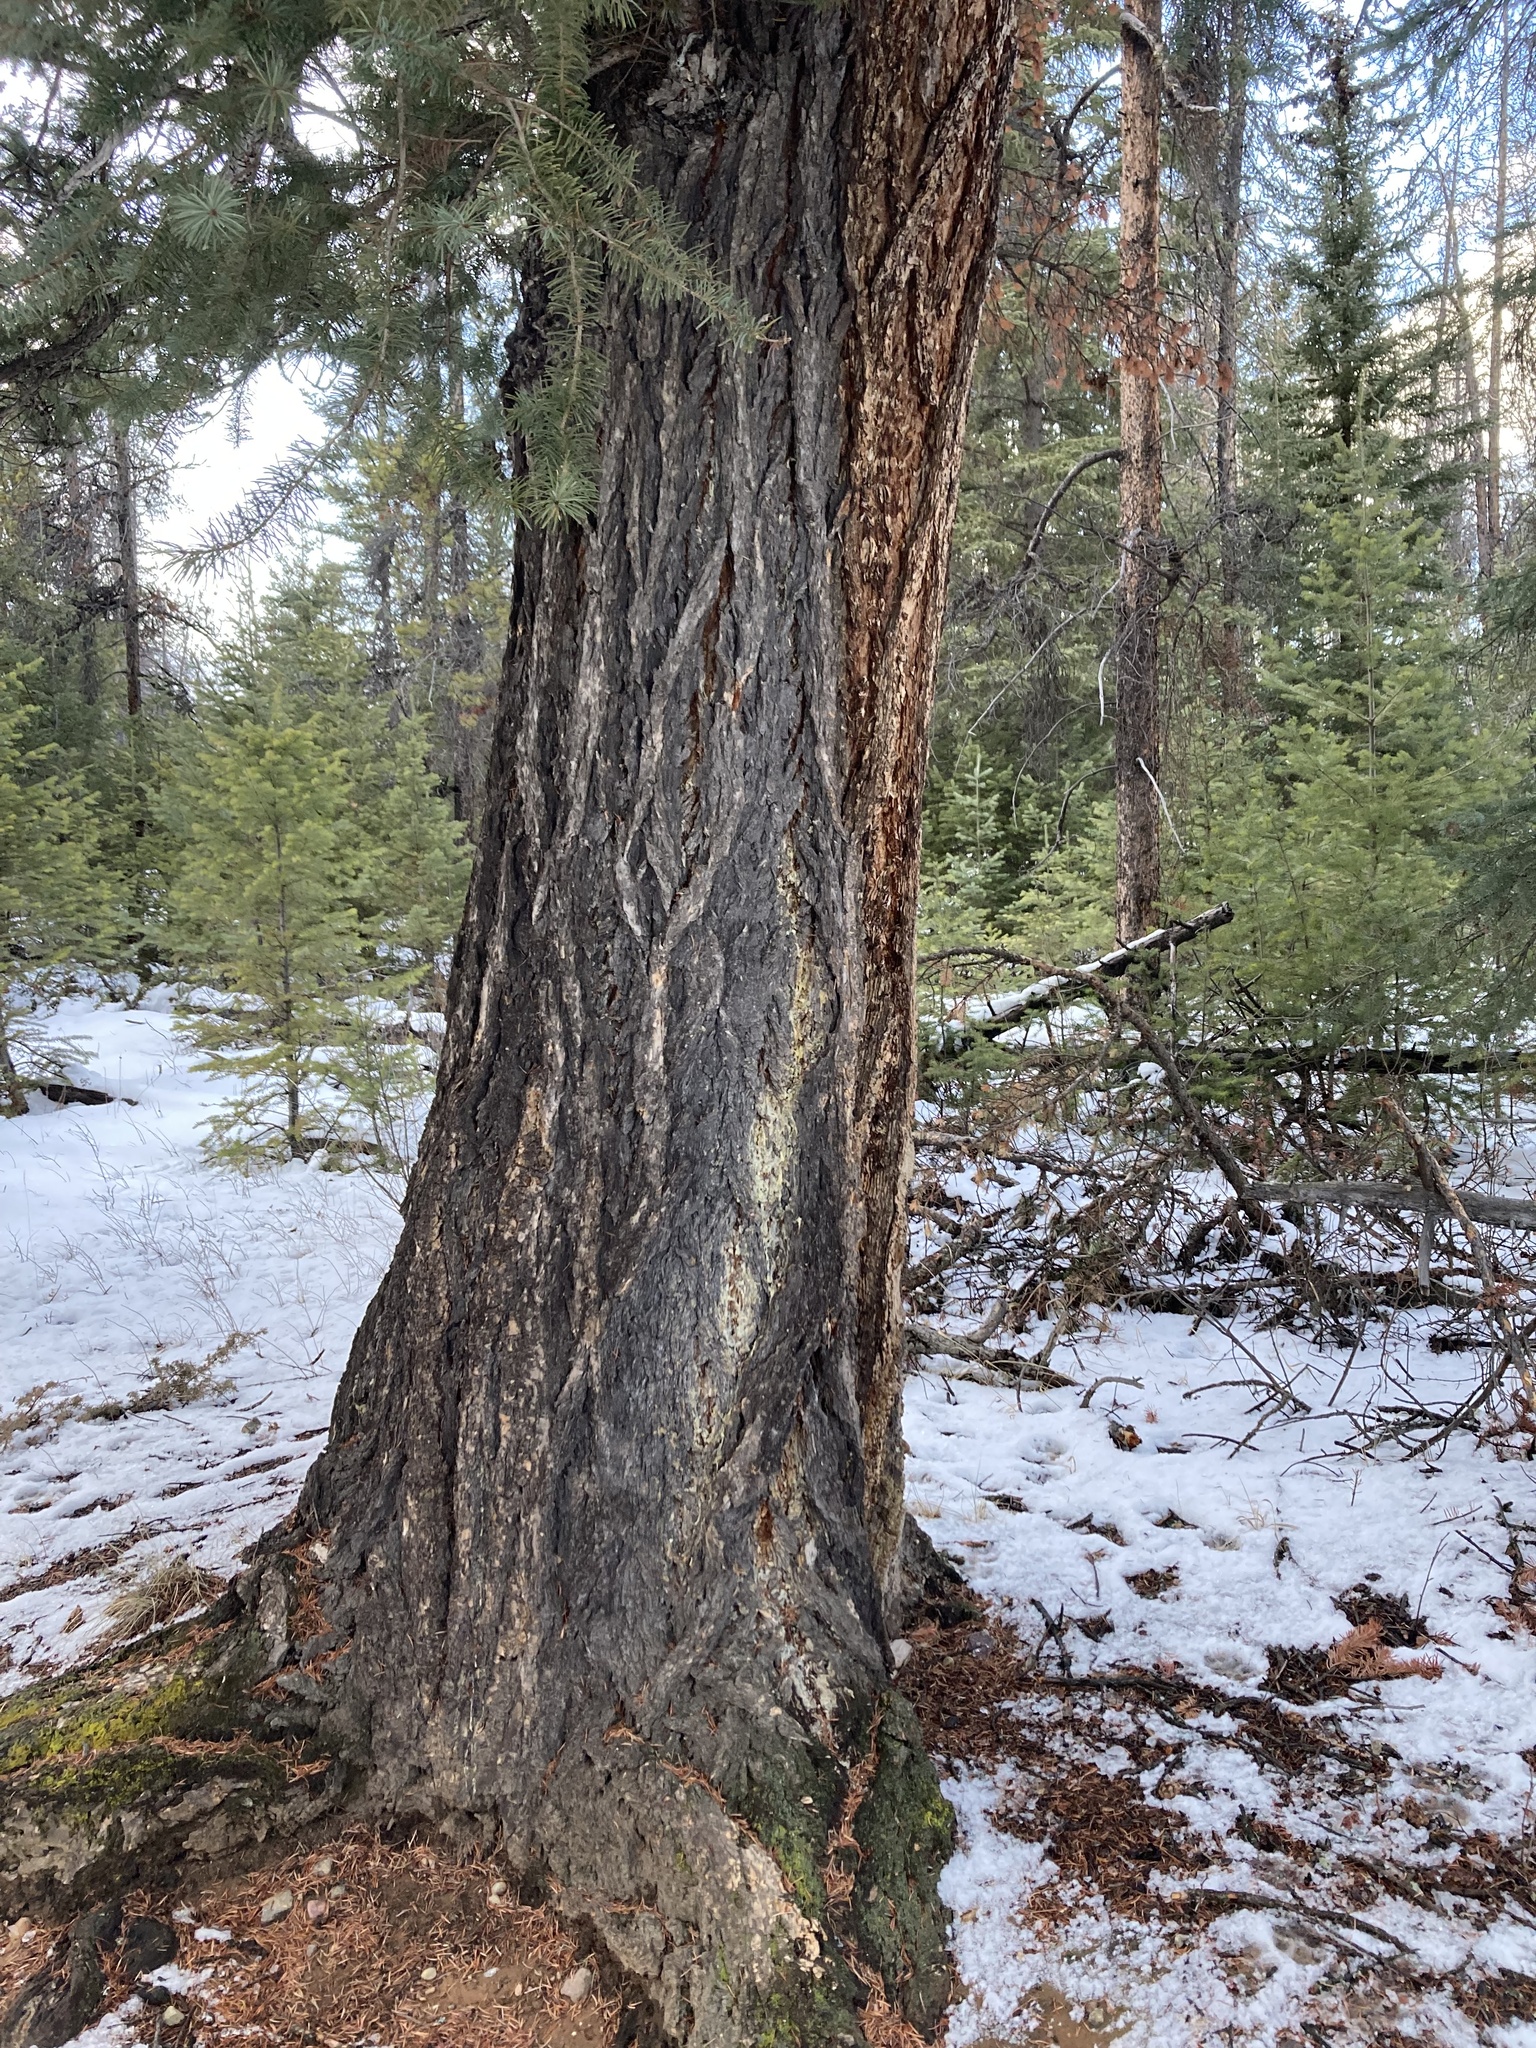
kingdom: Plantae
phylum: Tracheophyta
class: Pinopsida
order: Pinales
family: Pinaceae
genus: Pseudotsuga
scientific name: Pseudotsuga menziesii
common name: Douglas fir
